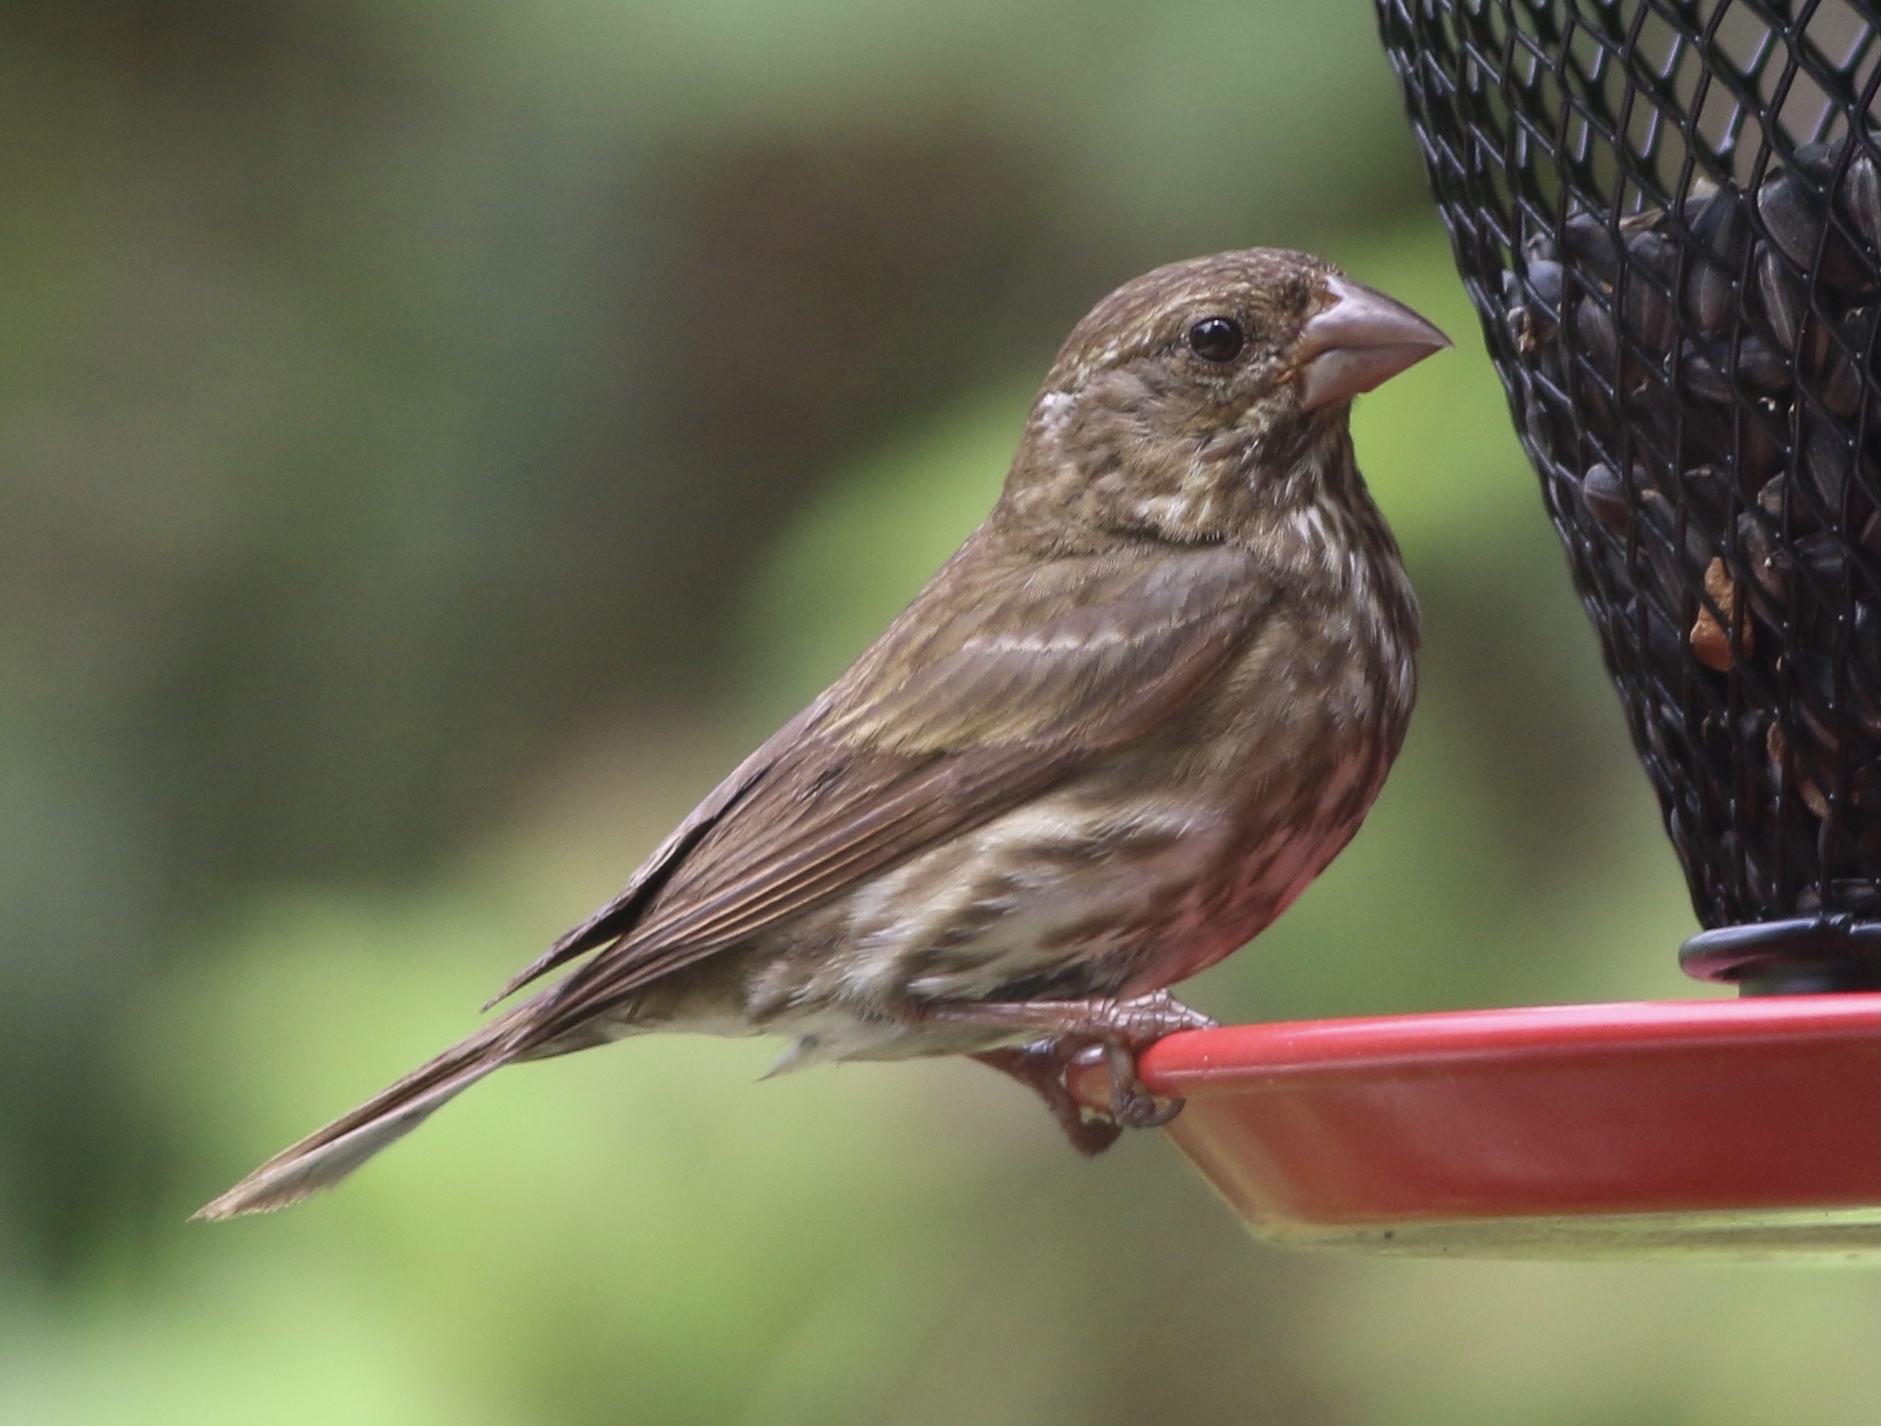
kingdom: Animalia
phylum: Chordata
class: Aves
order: Passeriformes
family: Fringillidae
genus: Haemorhous
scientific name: Haemorhous purpureus
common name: Purple finch
